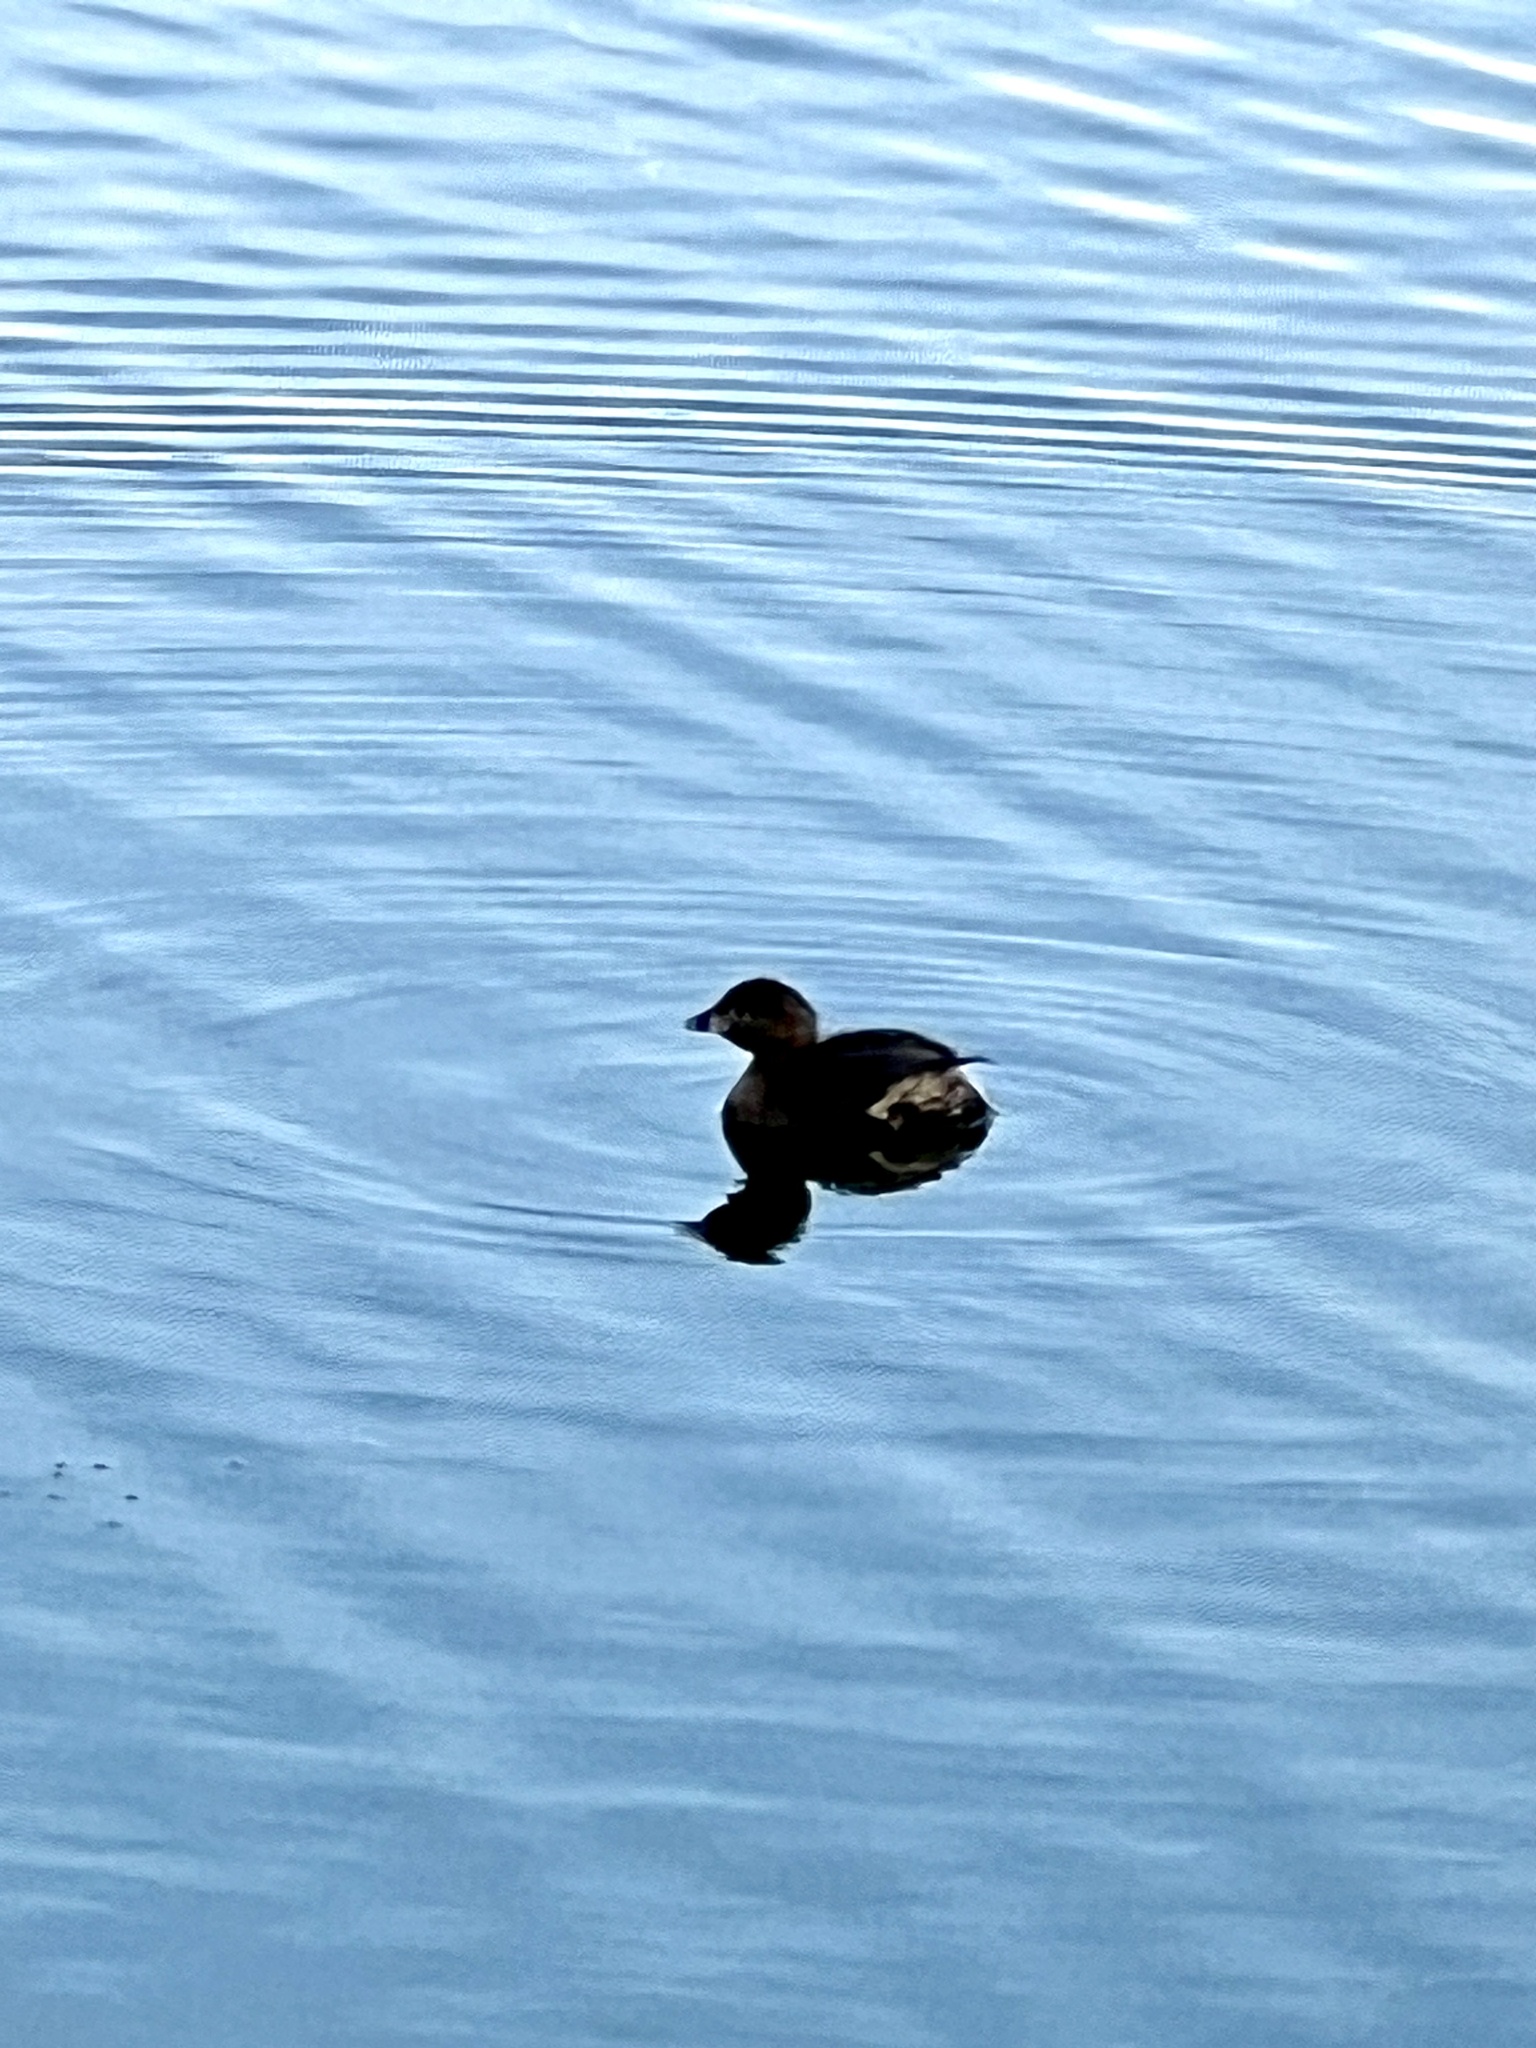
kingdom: Animalia
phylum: Chordata
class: Aves
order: Podicipediformes
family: Podicipedidae
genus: Podilymbus
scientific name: Podilymbus podiceps
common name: Pied-billed grebe
